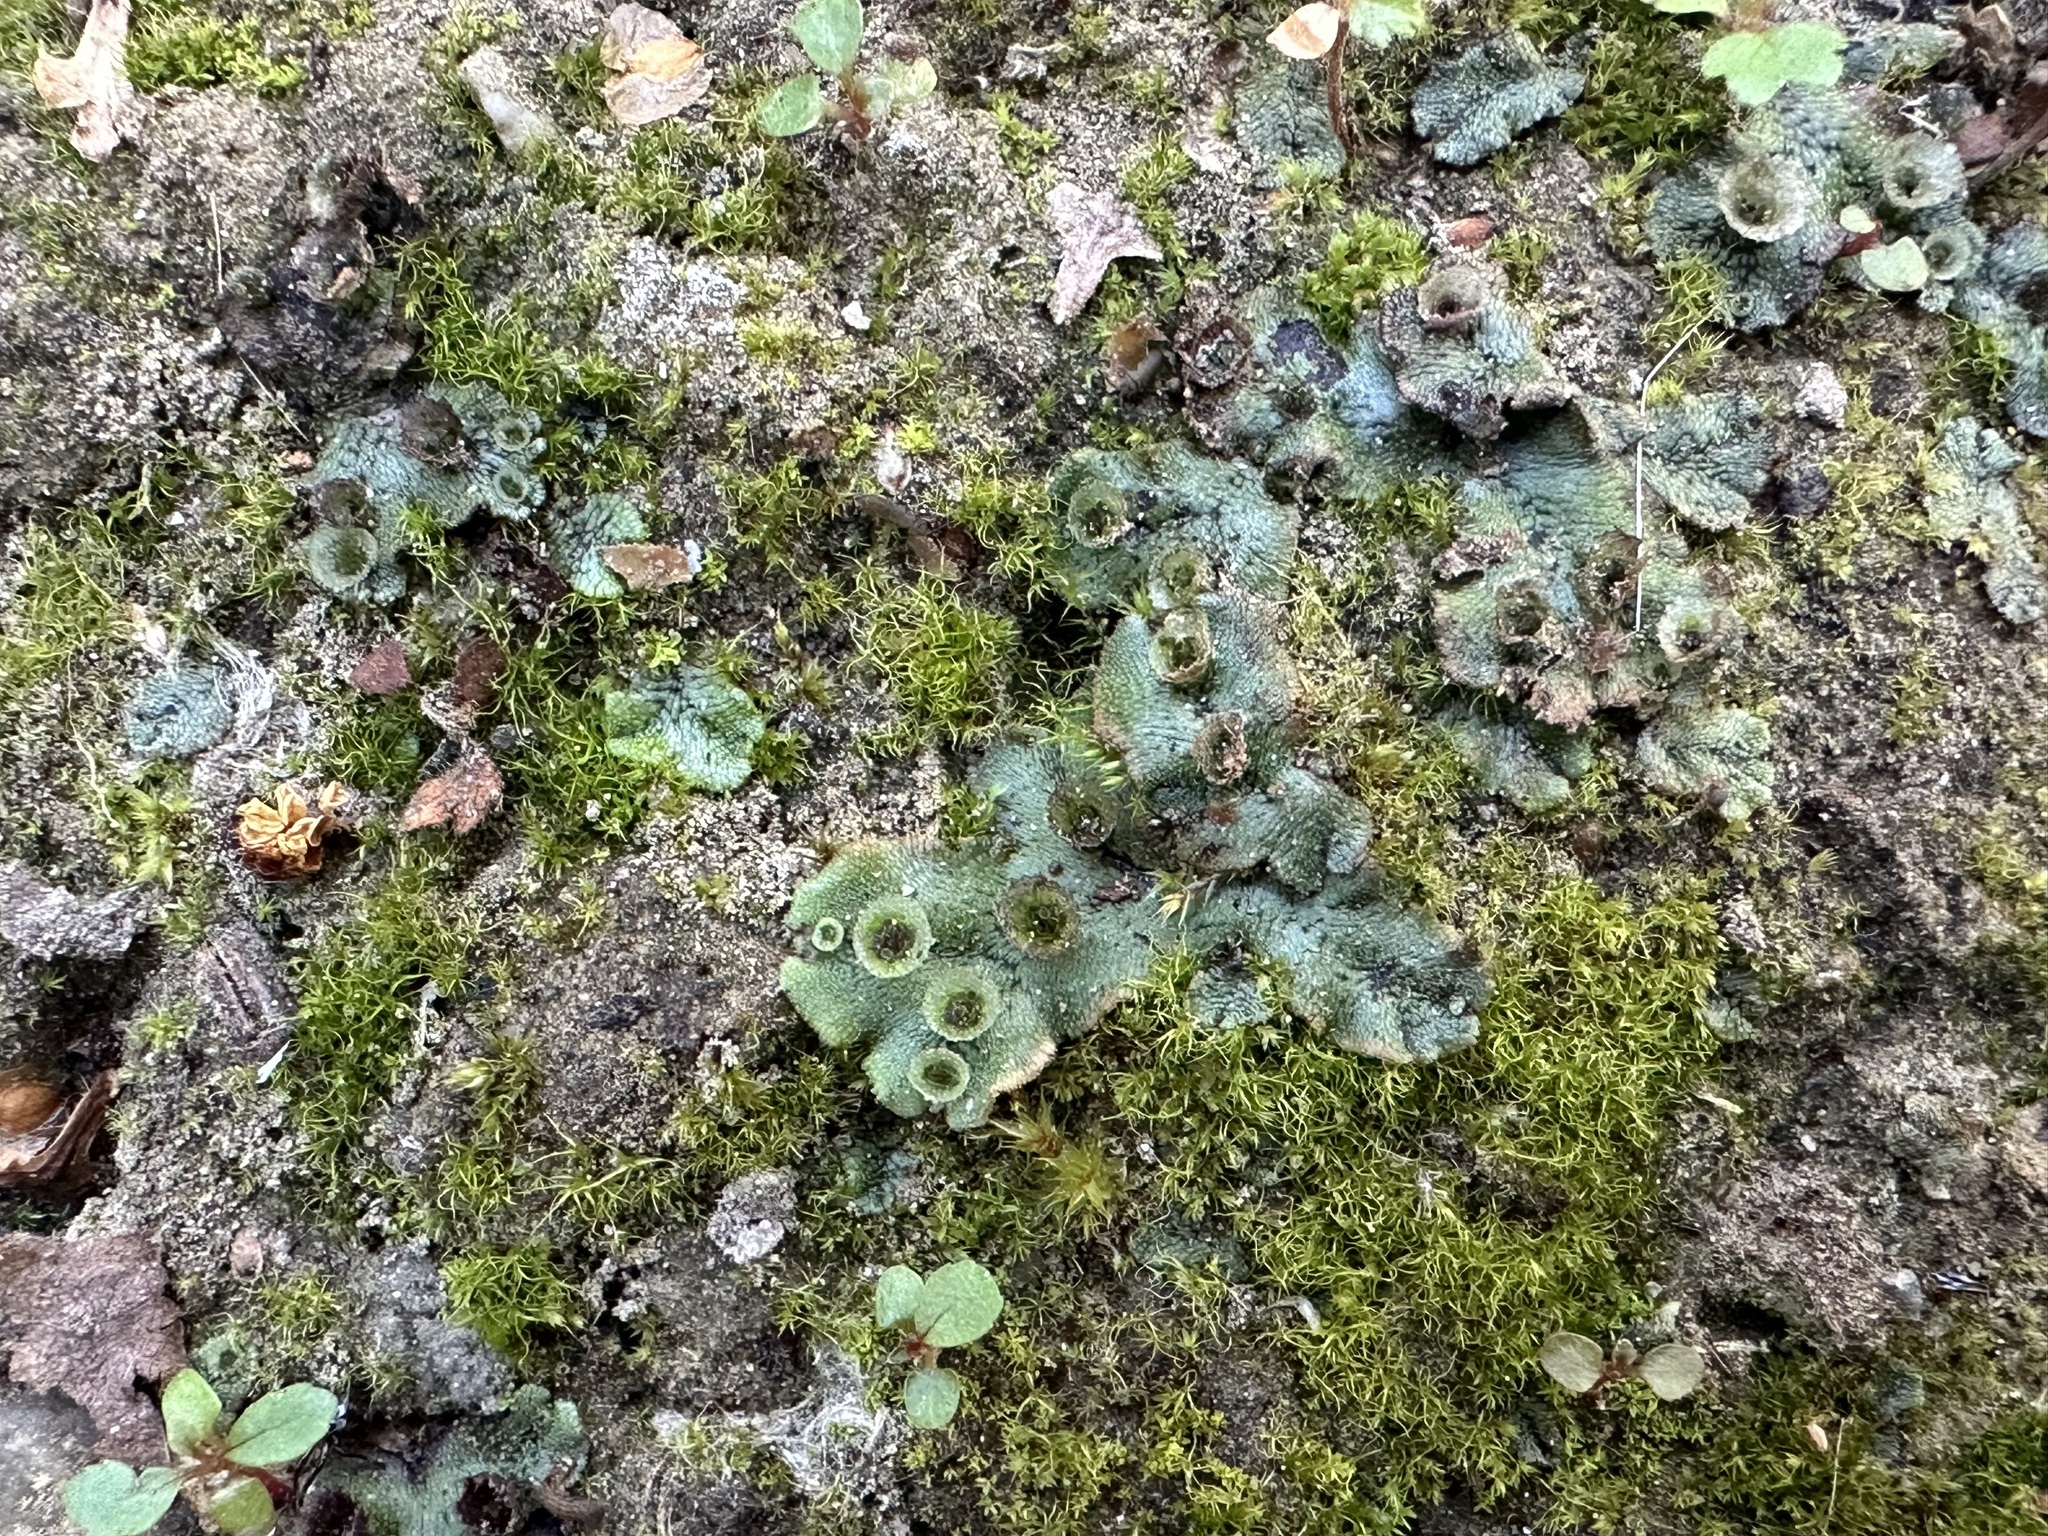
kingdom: Plantae
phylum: Marchantiophyta
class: Marchantiopsida
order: Marchantiales
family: Marchantiaceae
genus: Marchantia
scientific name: Marchantia polymorpha
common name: Common liverwort
